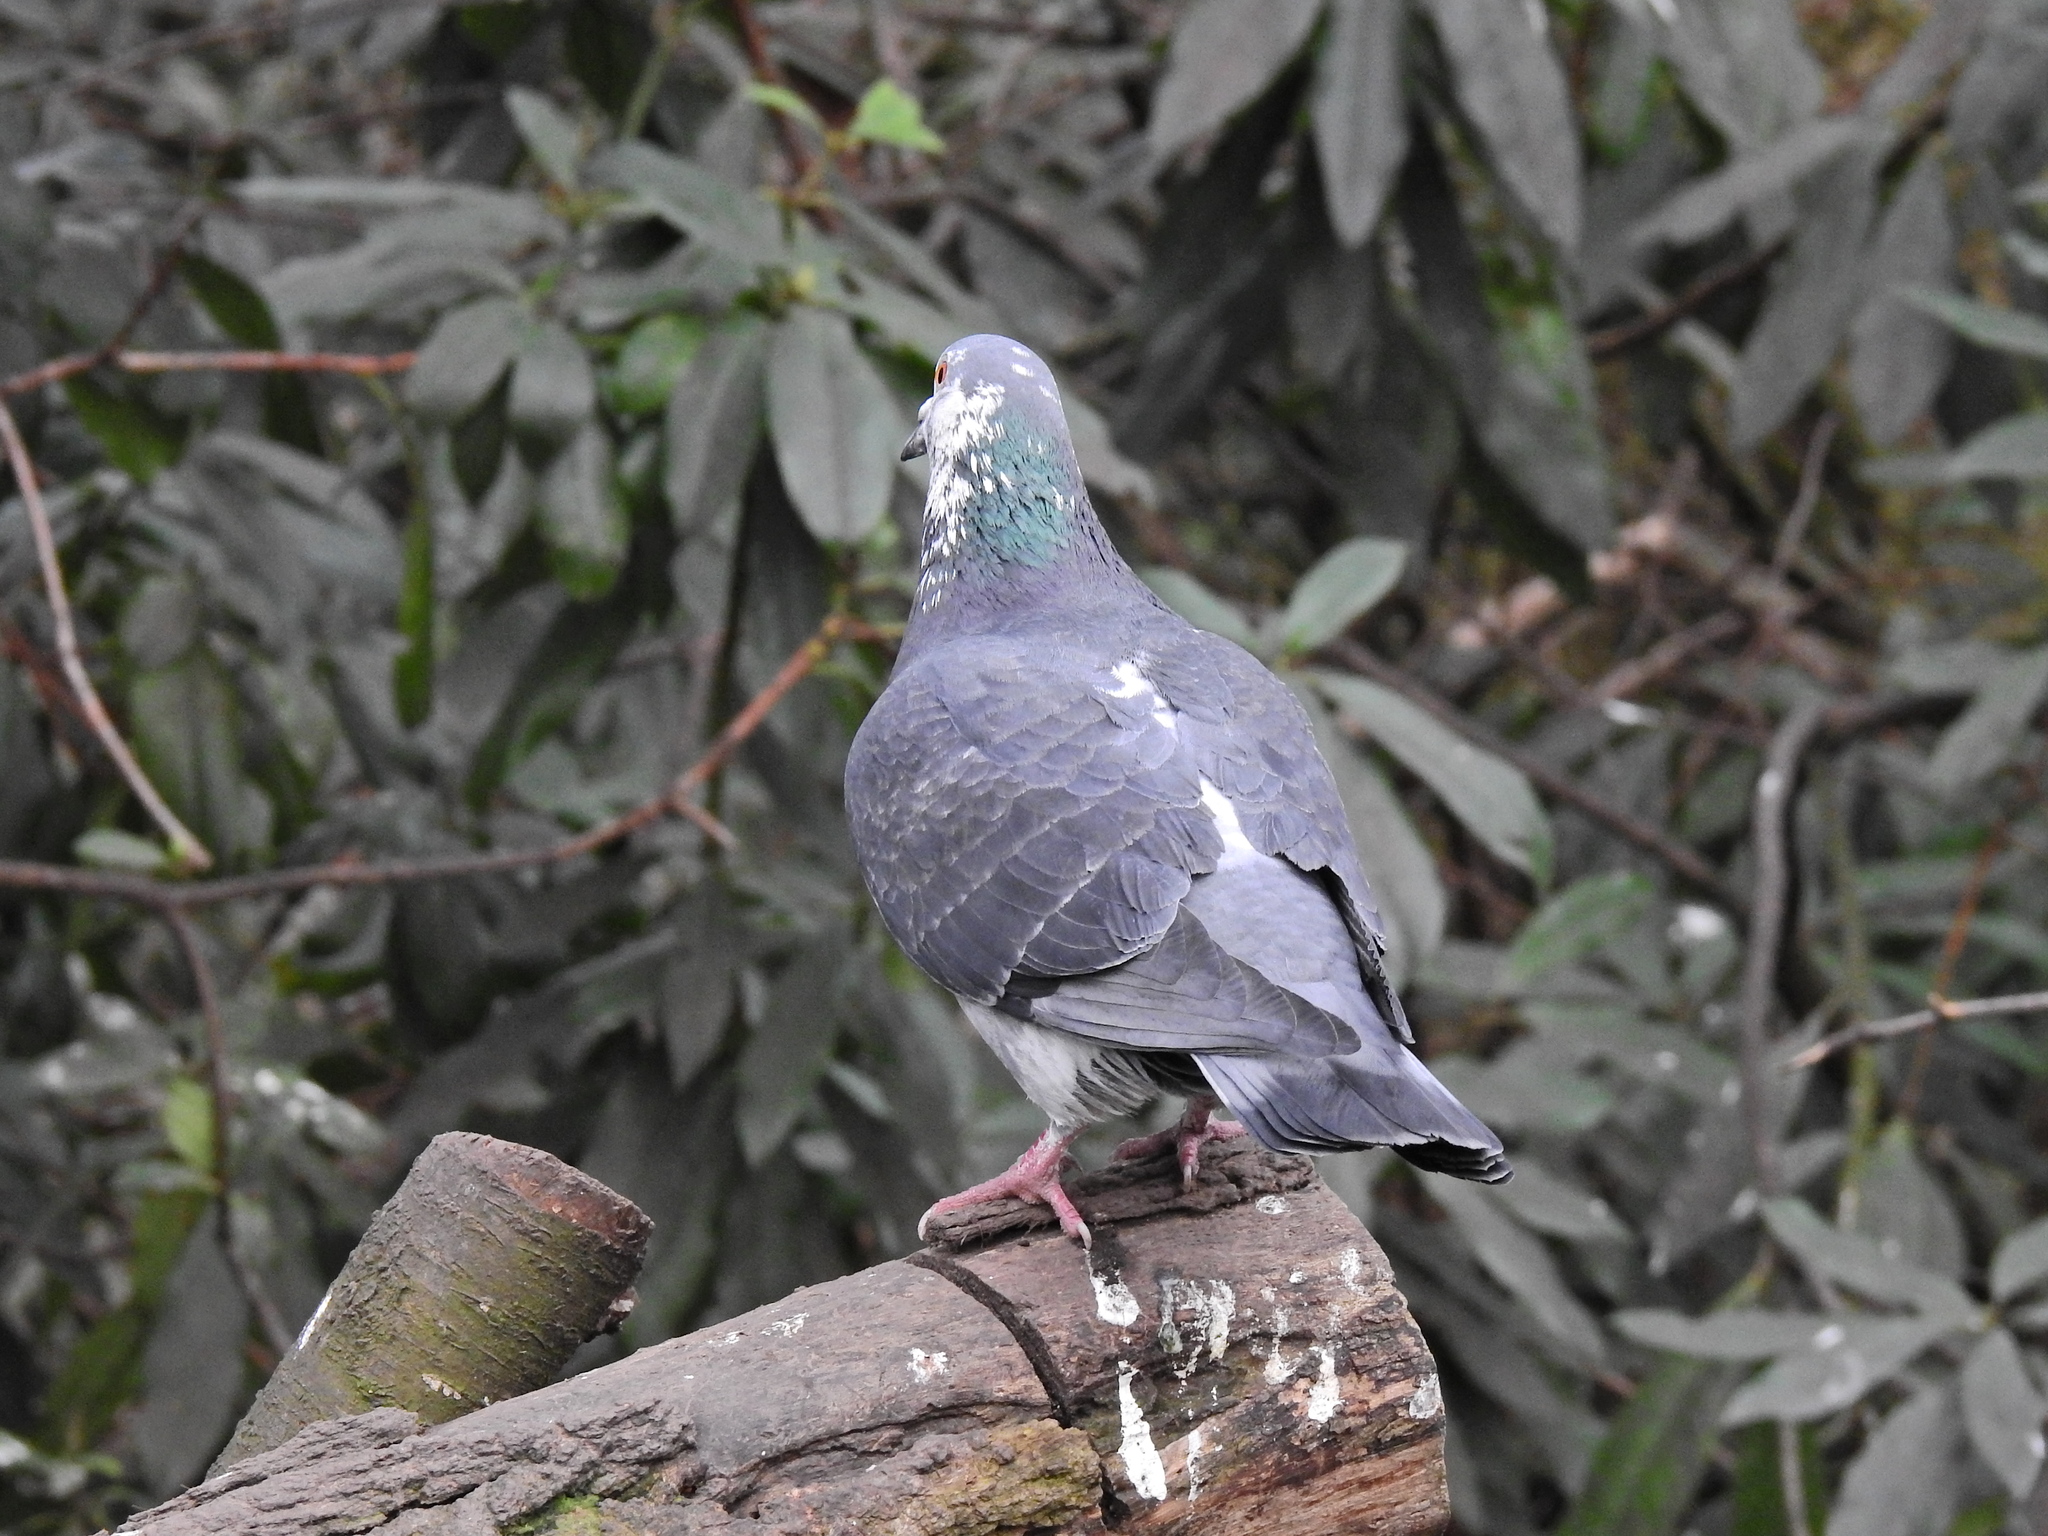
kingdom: Animalia
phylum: Chordata
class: Aves
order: Columbiformes
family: Columbidae
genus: Columba
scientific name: Columba livia
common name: Rock pigeon
